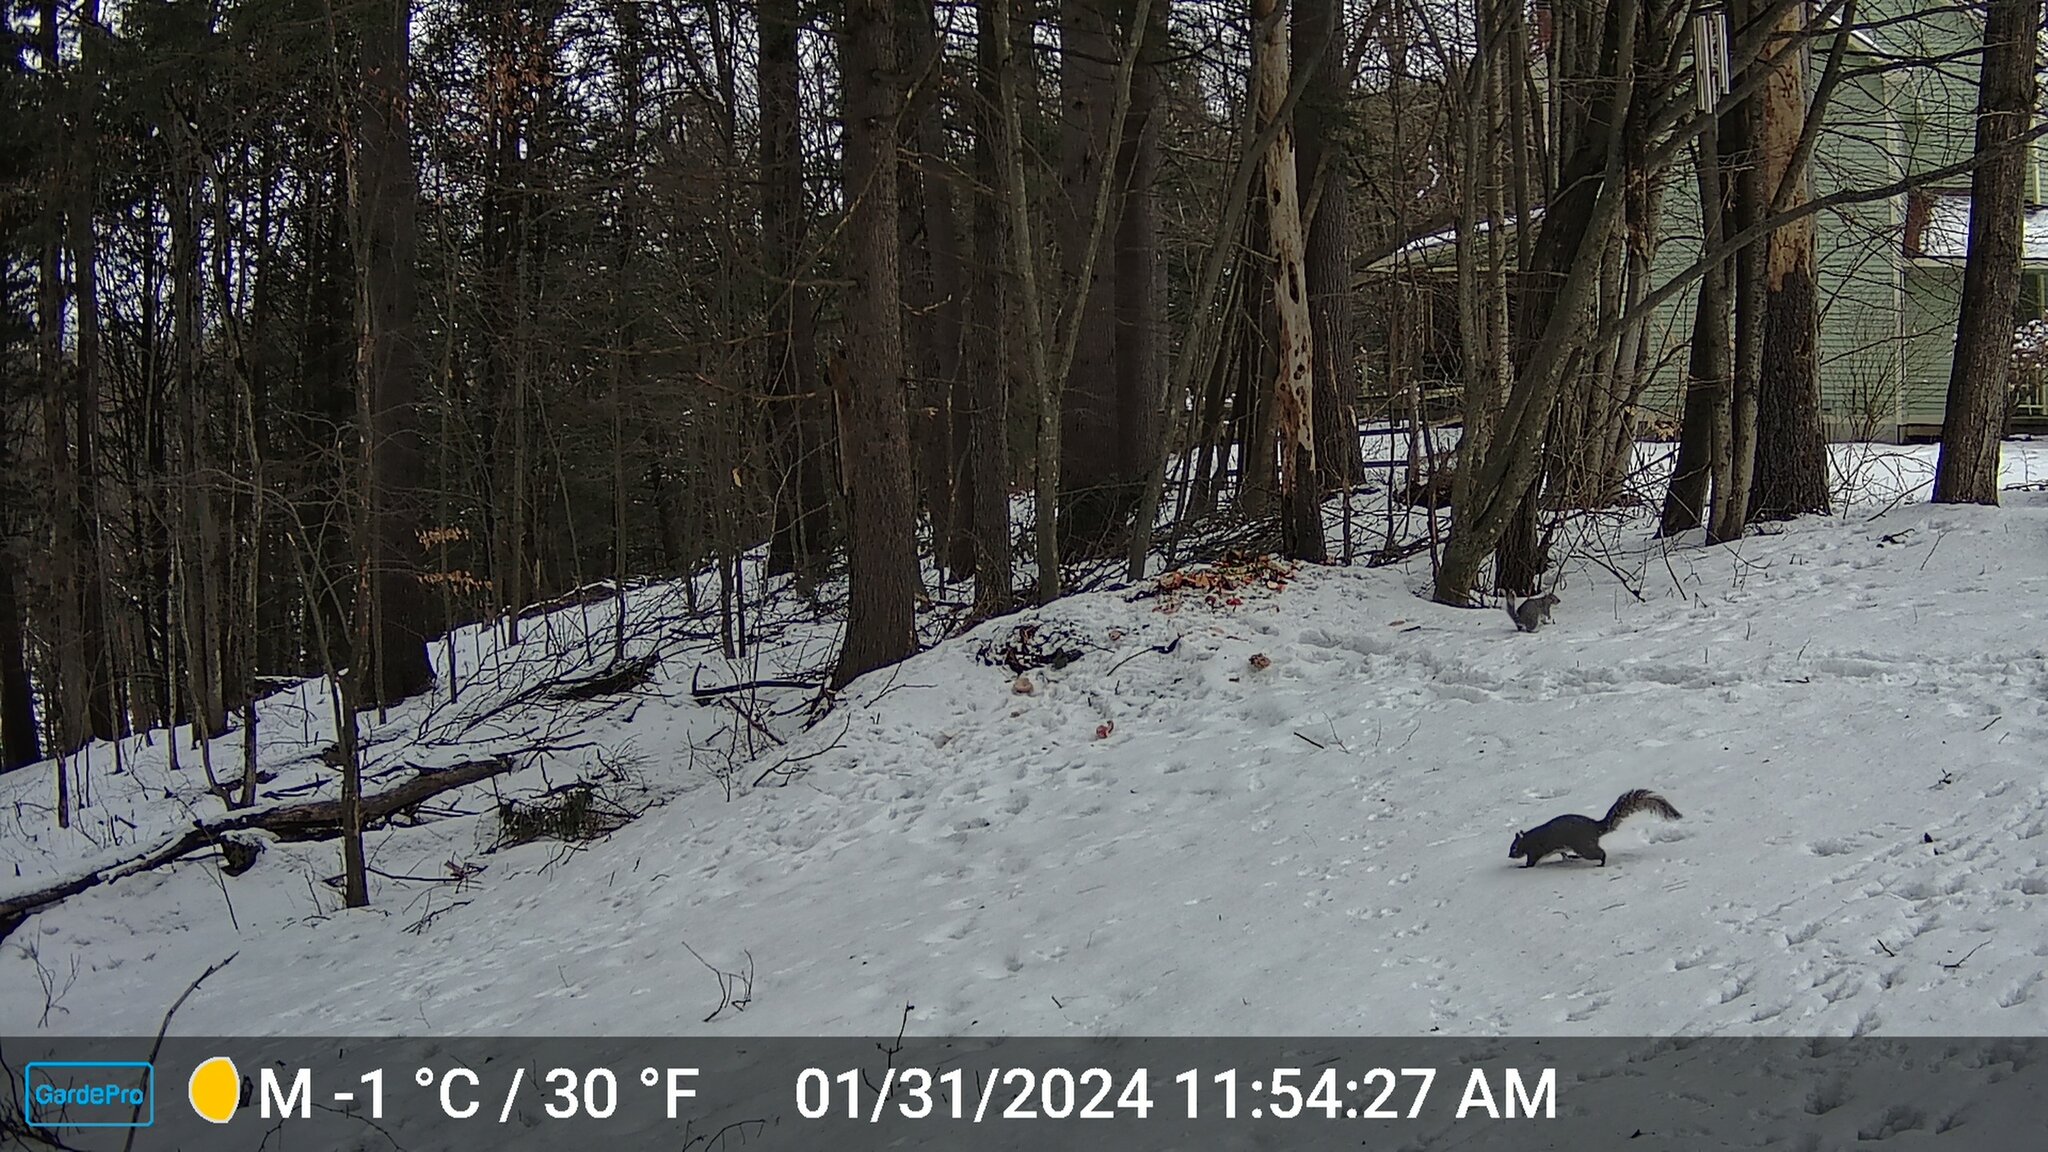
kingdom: Animalia
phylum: Chordata
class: Mammalia
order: Rodentia
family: Sciuridae
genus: Sciurus
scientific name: Sciurus carolinensis
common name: Eastern gray squirrel
